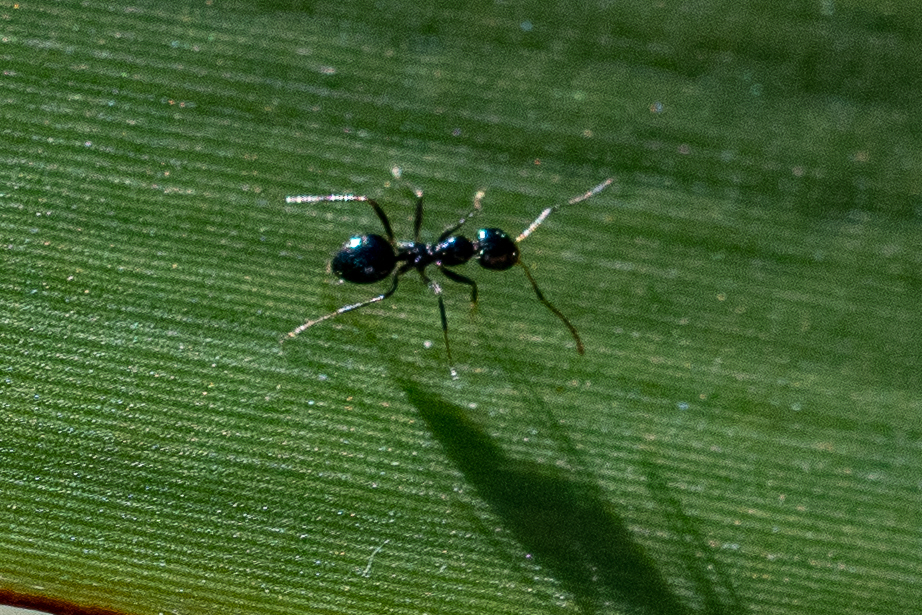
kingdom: Animalia
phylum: Arthropoda
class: Insecta
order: Hymenoptera
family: Formicidae
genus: Lepisiota
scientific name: Lepisiota capensis
